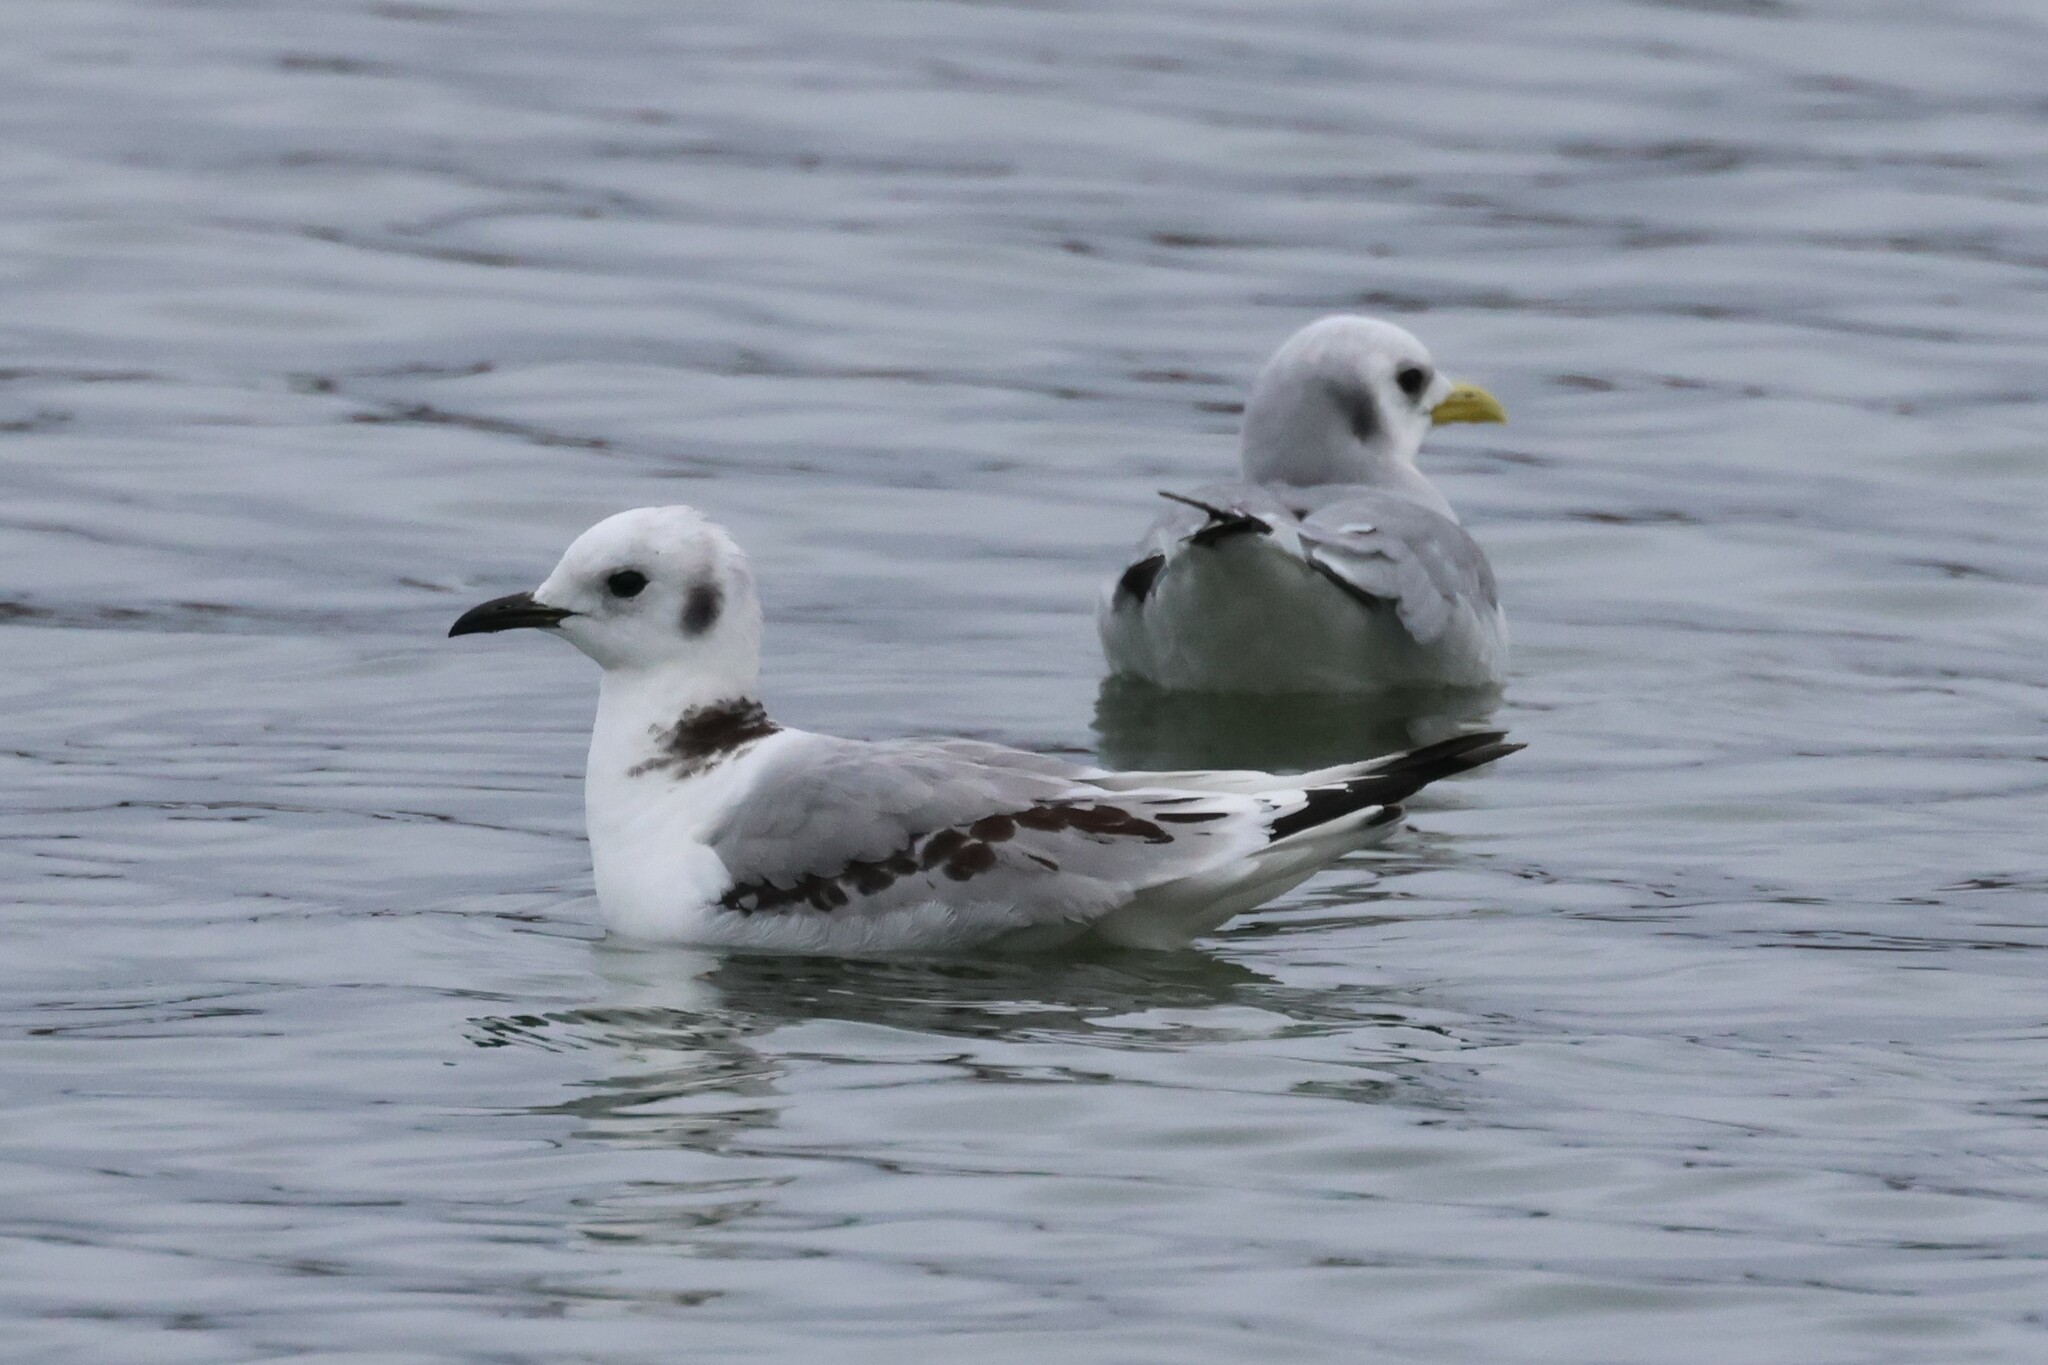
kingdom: Animalia
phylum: Chordata
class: Aves
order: Charadriiformes
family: Laridae
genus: Rissa
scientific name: Rissa tridactyla
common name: Black-legged kittiwake
